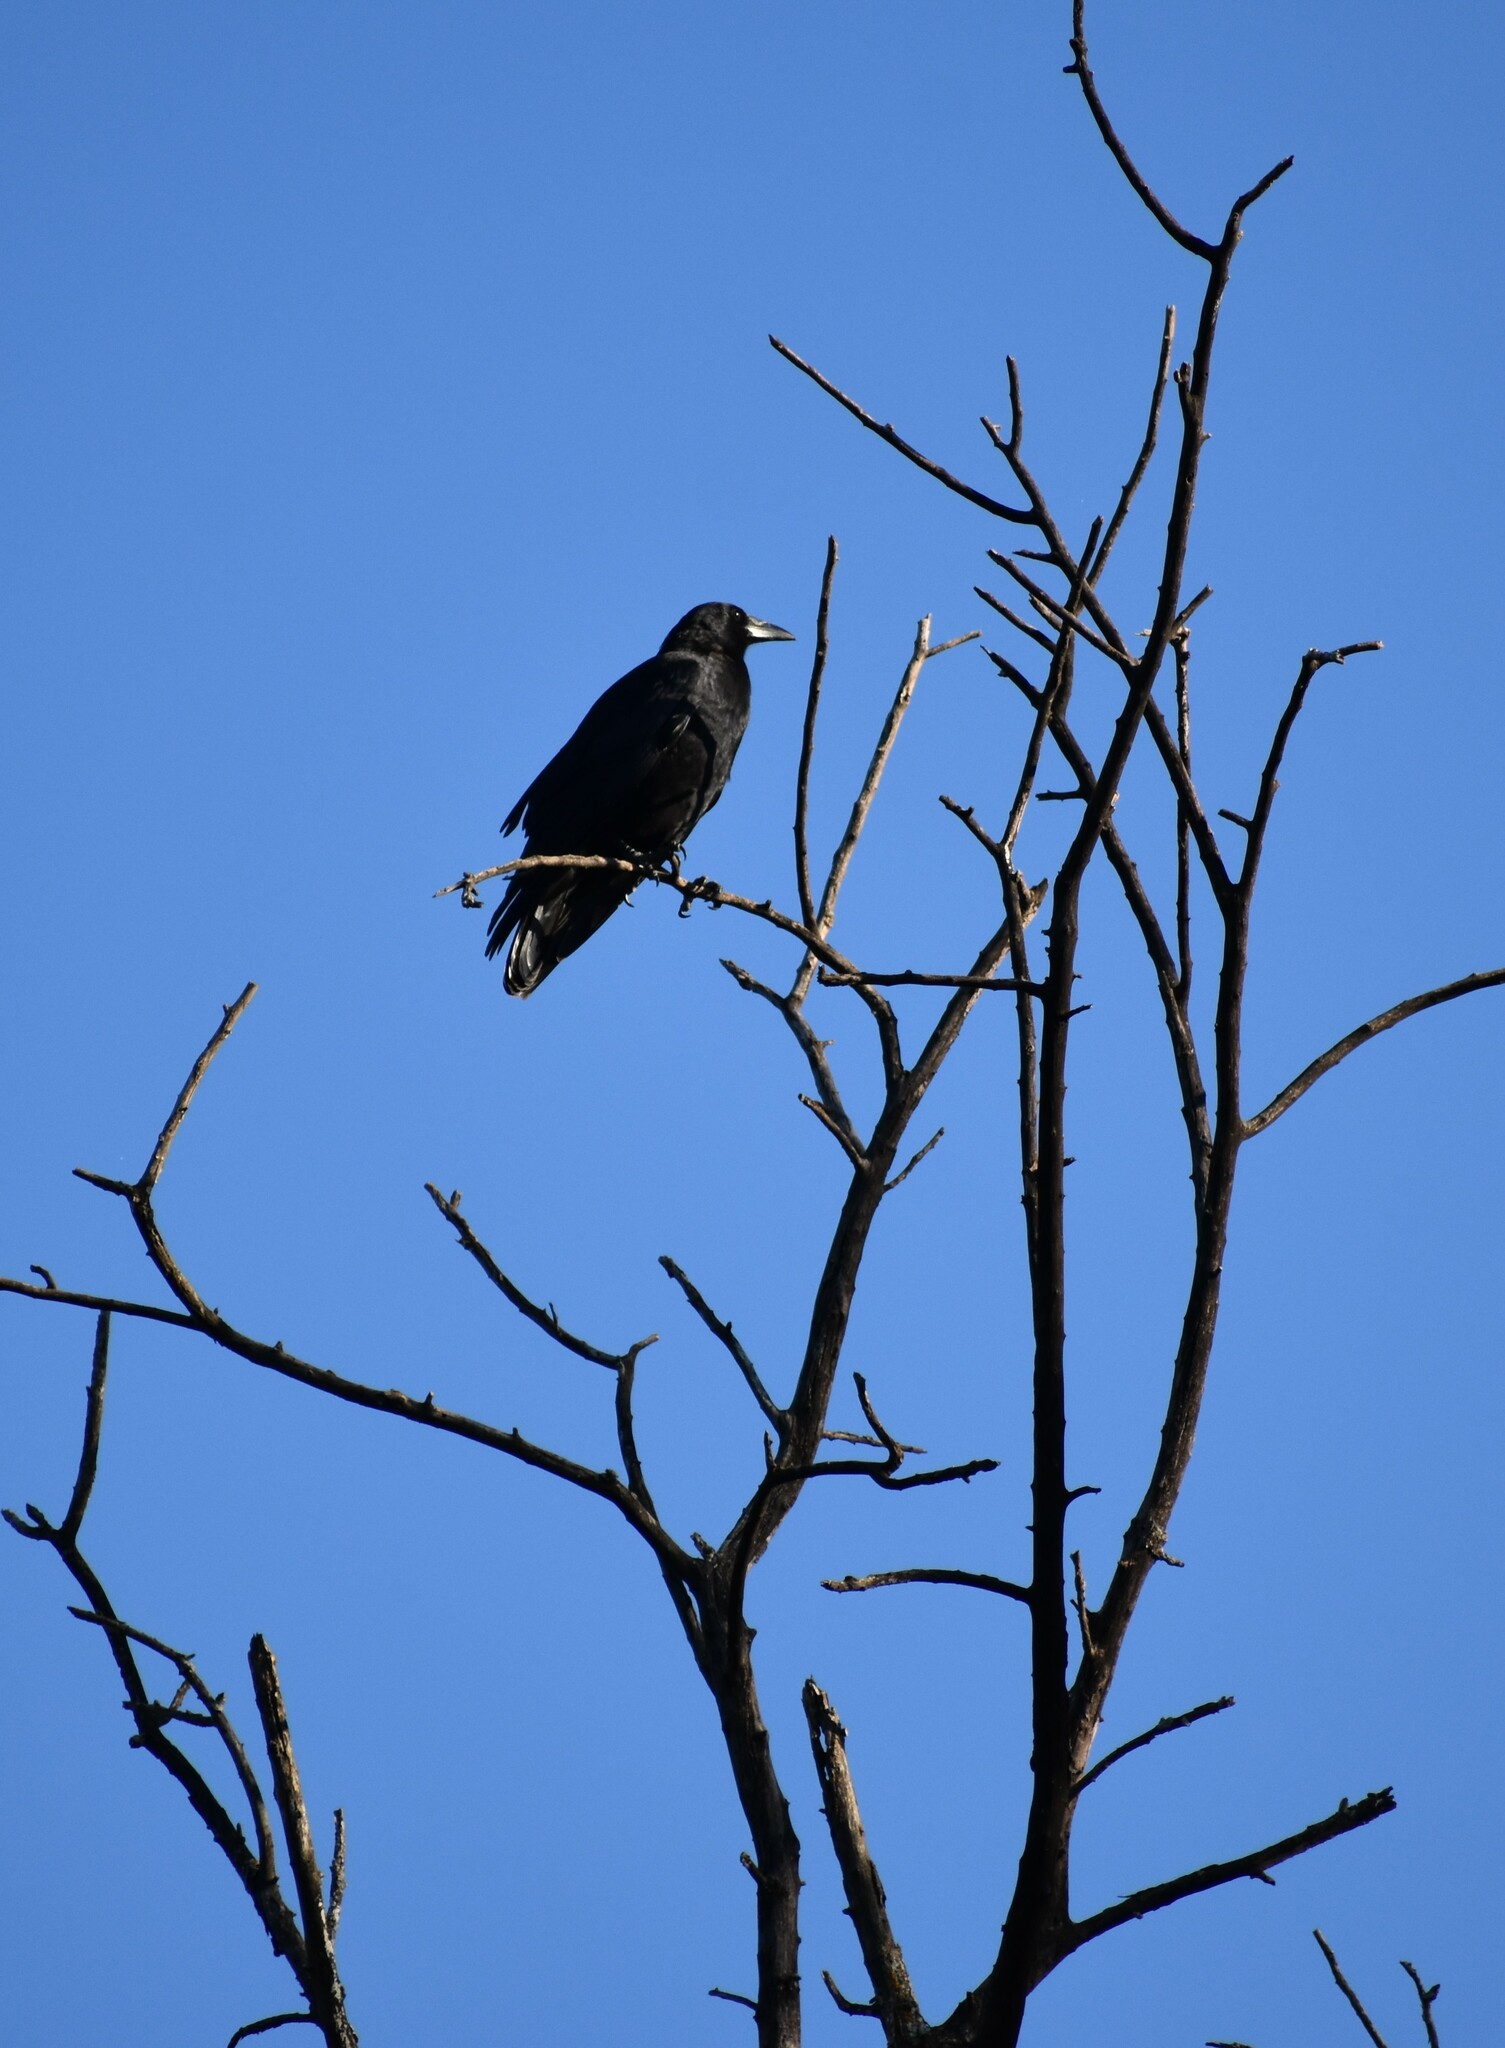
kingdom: Animalia
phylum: Chordata
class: Aves
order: Passeriformes
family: Corvidae
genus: Corvus
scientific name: Corvus brachyrhynchos
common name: American crow
